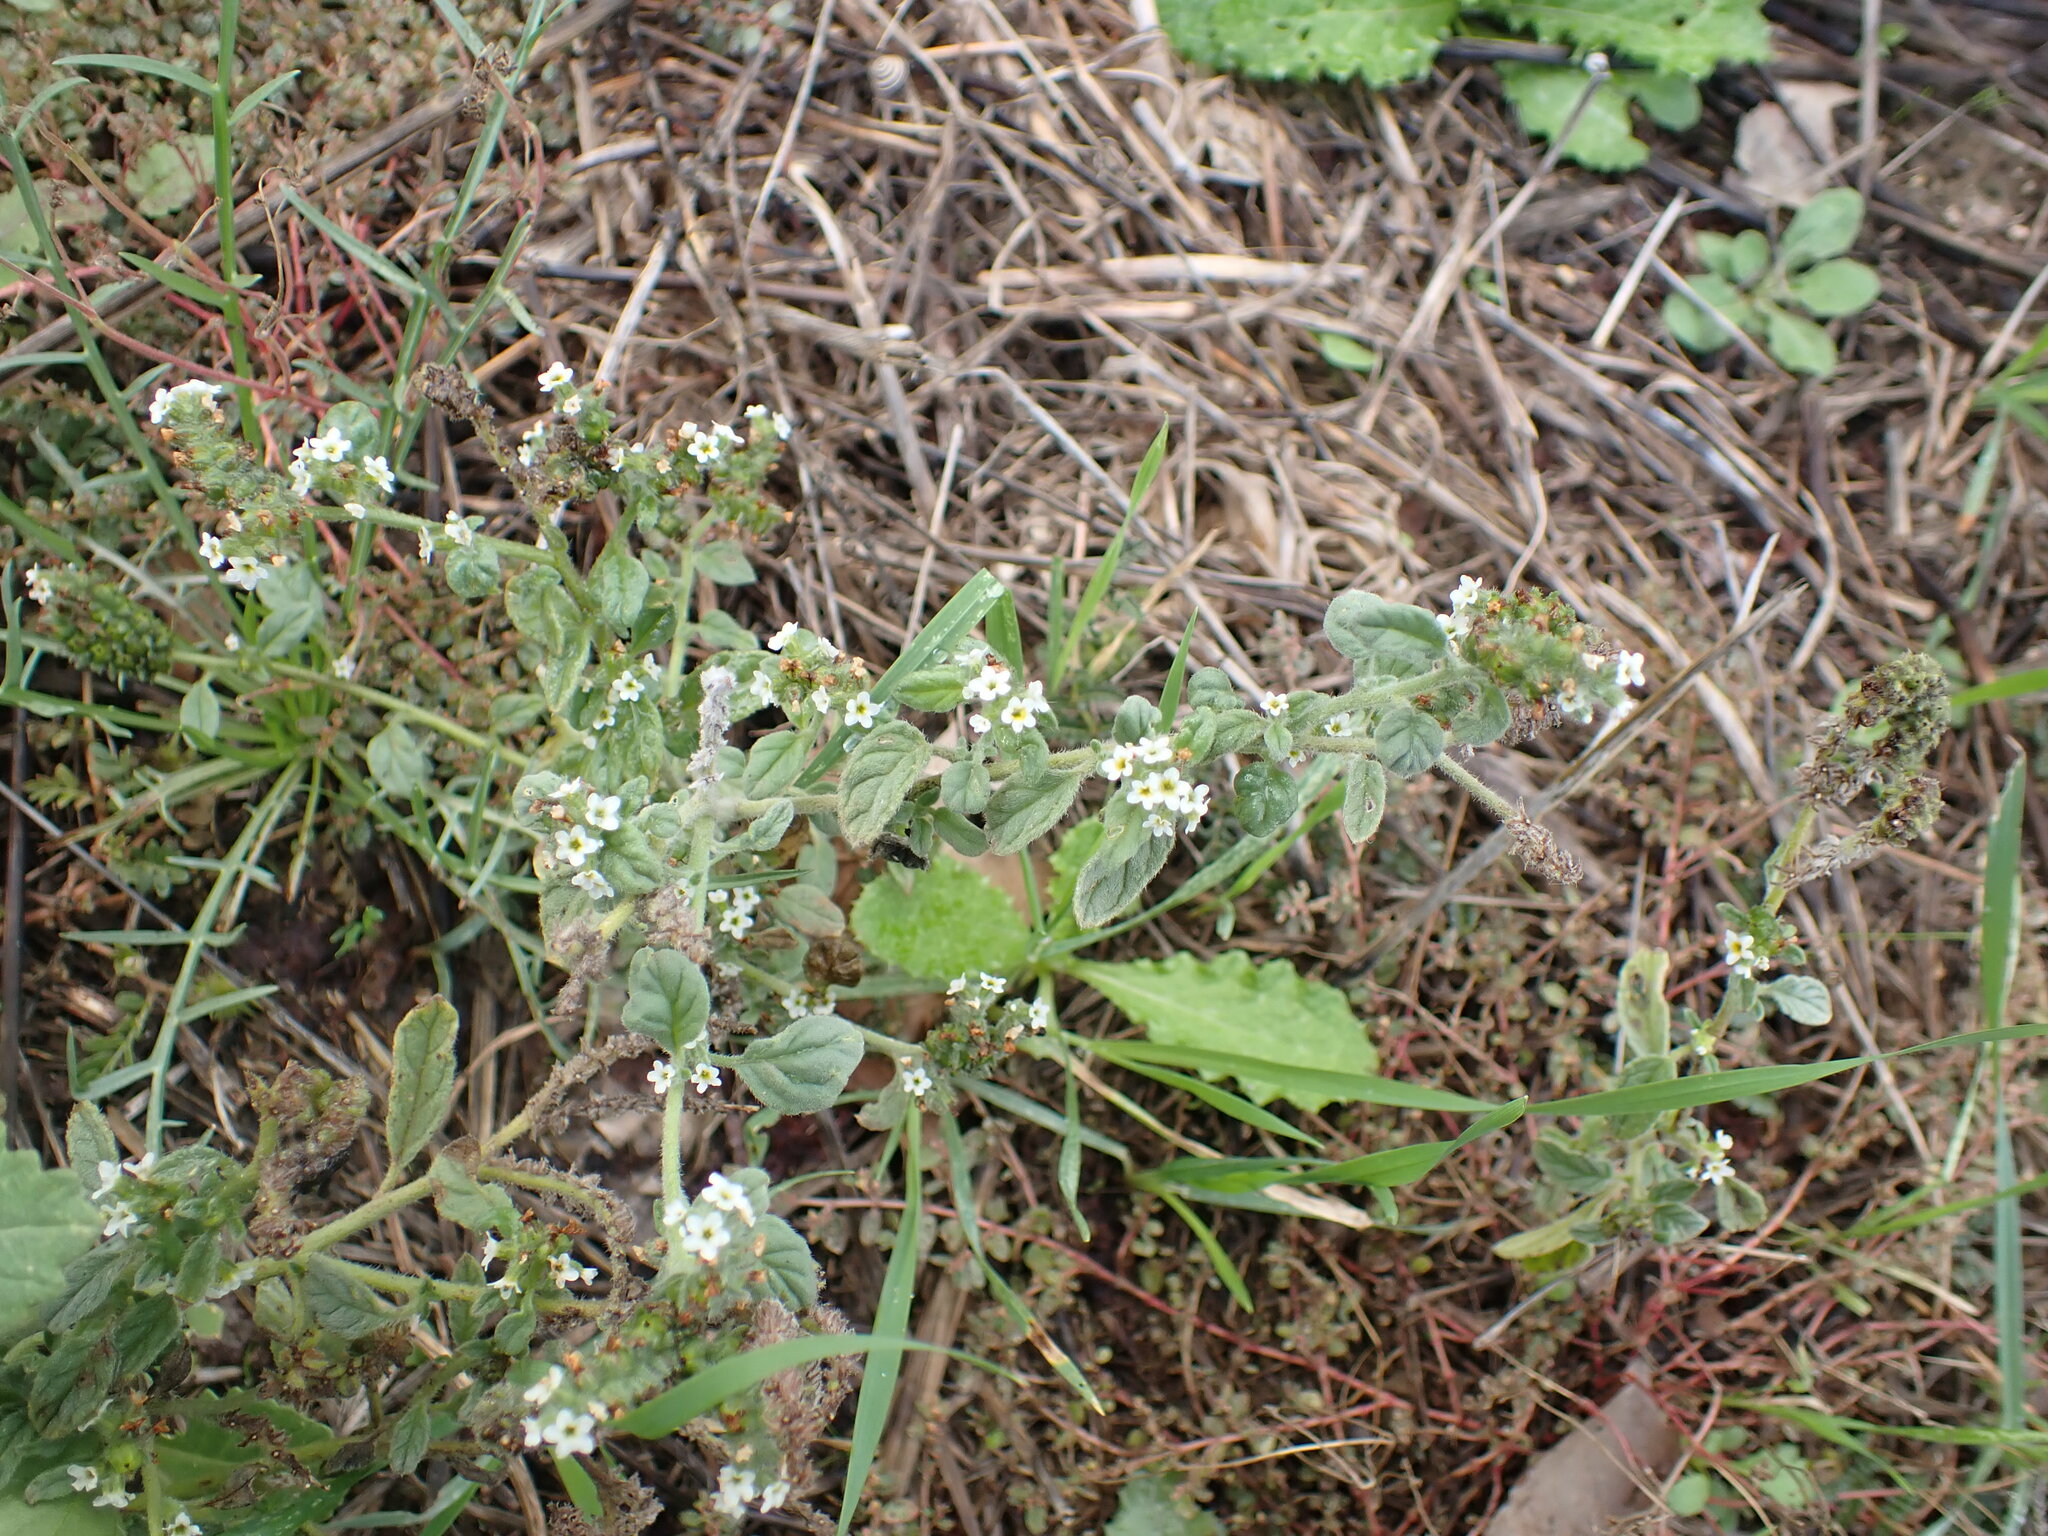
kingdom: Plantae
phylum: Tracheophyta
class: Magnoliopsida
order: Boraginales
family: Heliotropiaceae
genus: Heliotropium
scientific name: Heliotropium europaeum
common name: European heliotrope
